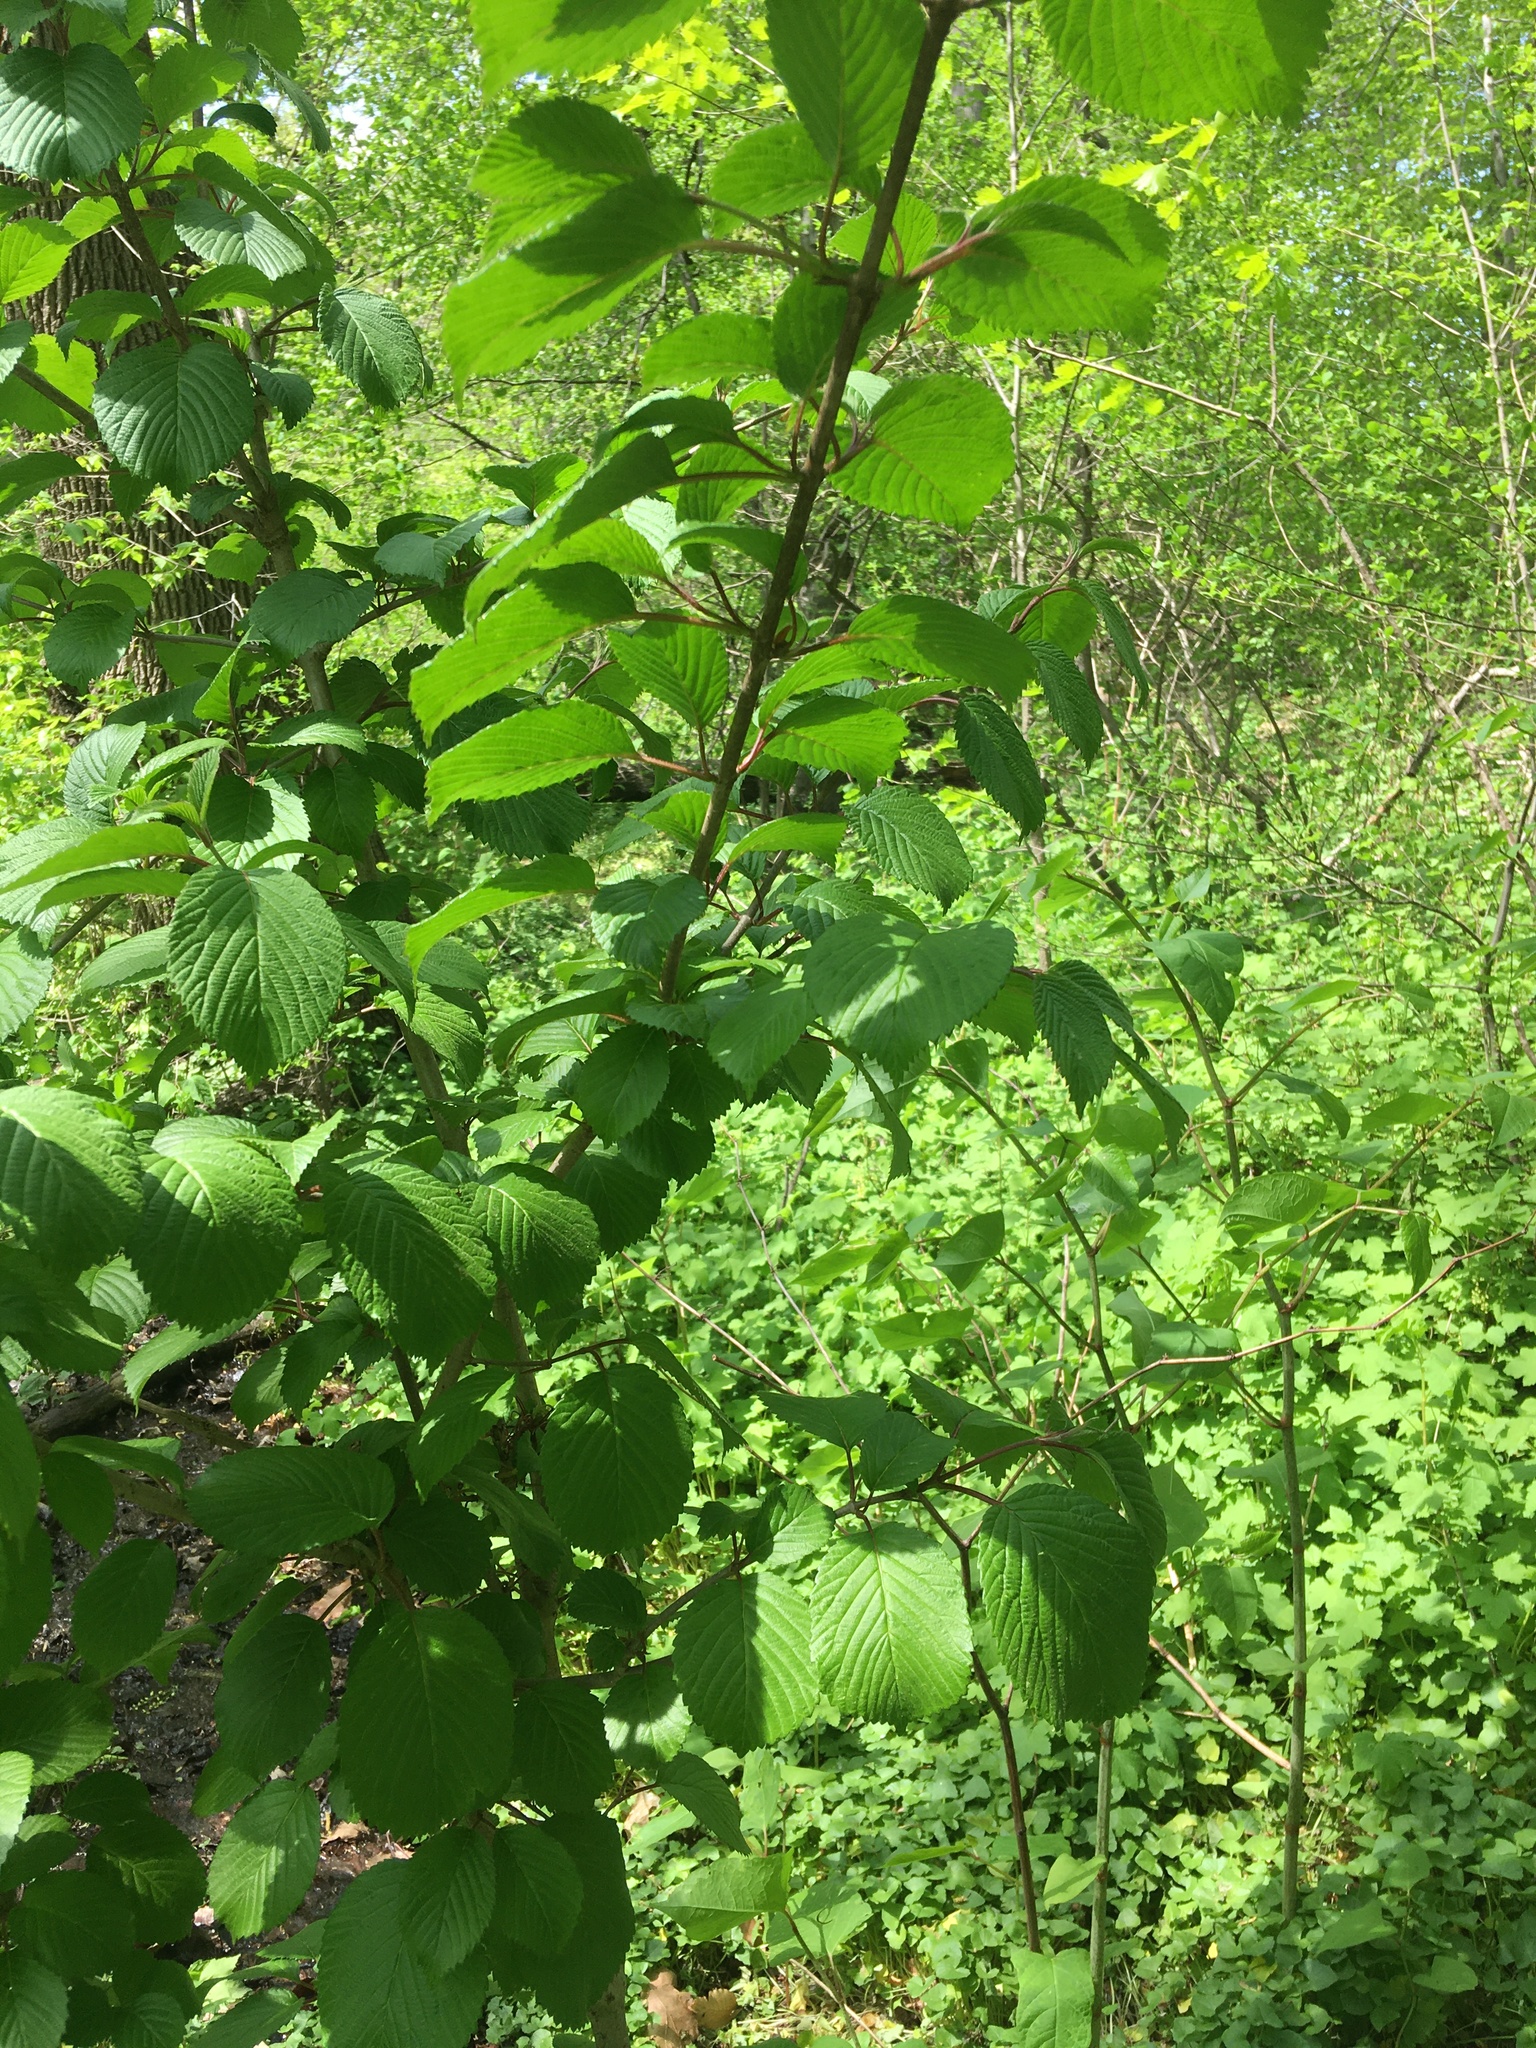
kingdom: Plantae
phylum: Tracheophyta
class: Magnoliopsida
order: Dipsacales
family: Viburnaceae
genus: Viburnum
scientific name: Viburnum plicatum
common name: Japanese snowball
